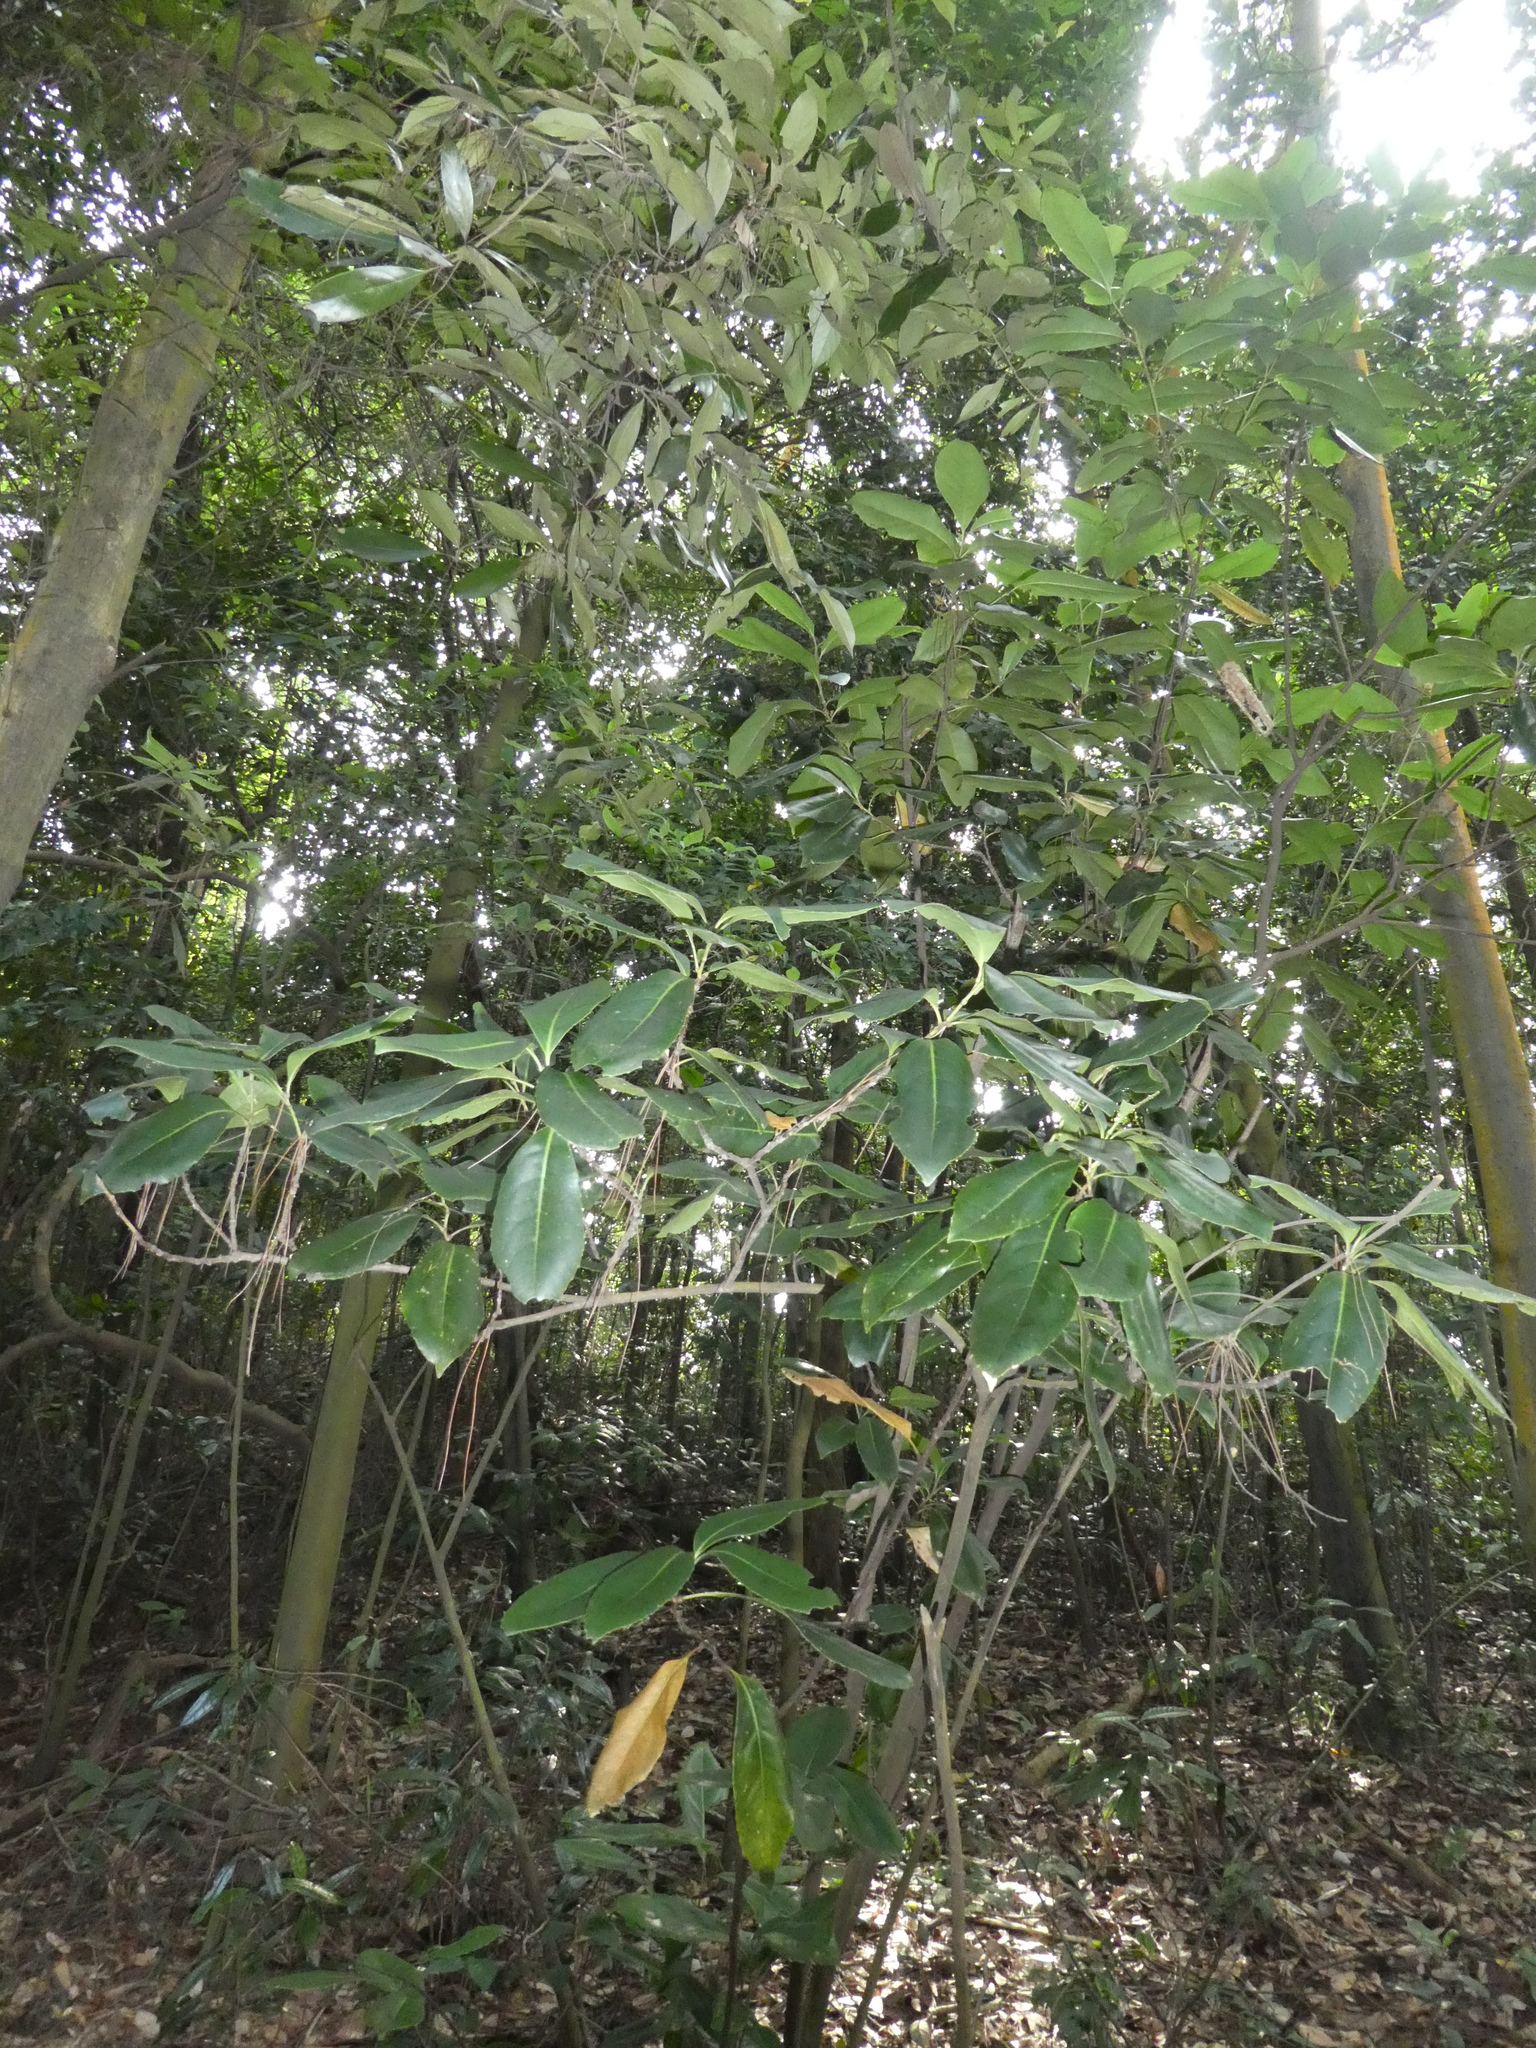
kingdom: Plantae
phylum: Tracheophyta
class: Magnoliopsida
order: Proteales
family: Proteaceae
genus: Helicia
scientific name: Helicia reticulata
